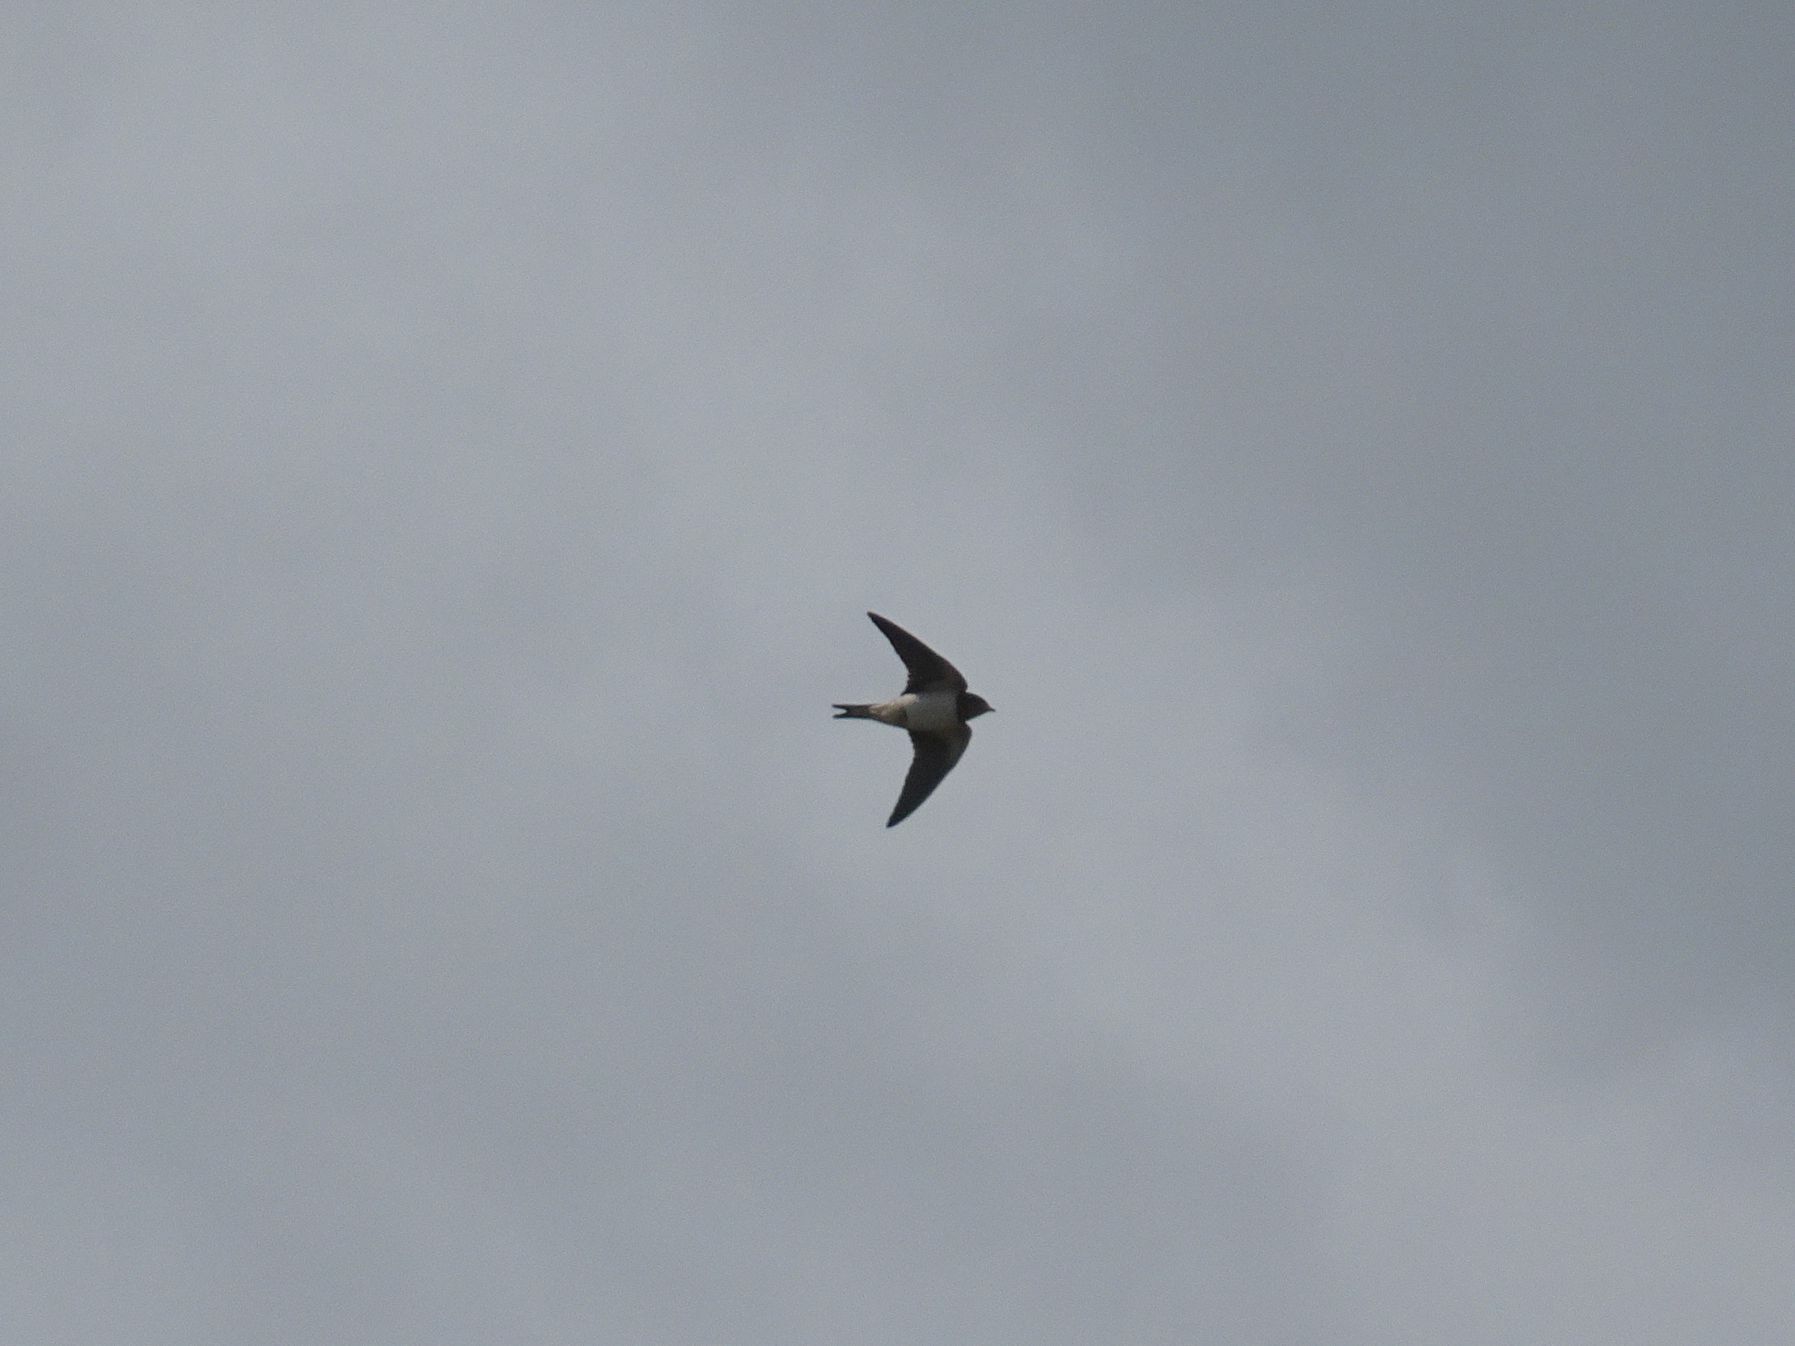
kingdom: Animalia
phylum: Chordata
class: Aves
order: Passeriformes
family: Hirundinidae
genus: Hirundo
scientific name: Hirundo rustica
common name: Barn swallow
